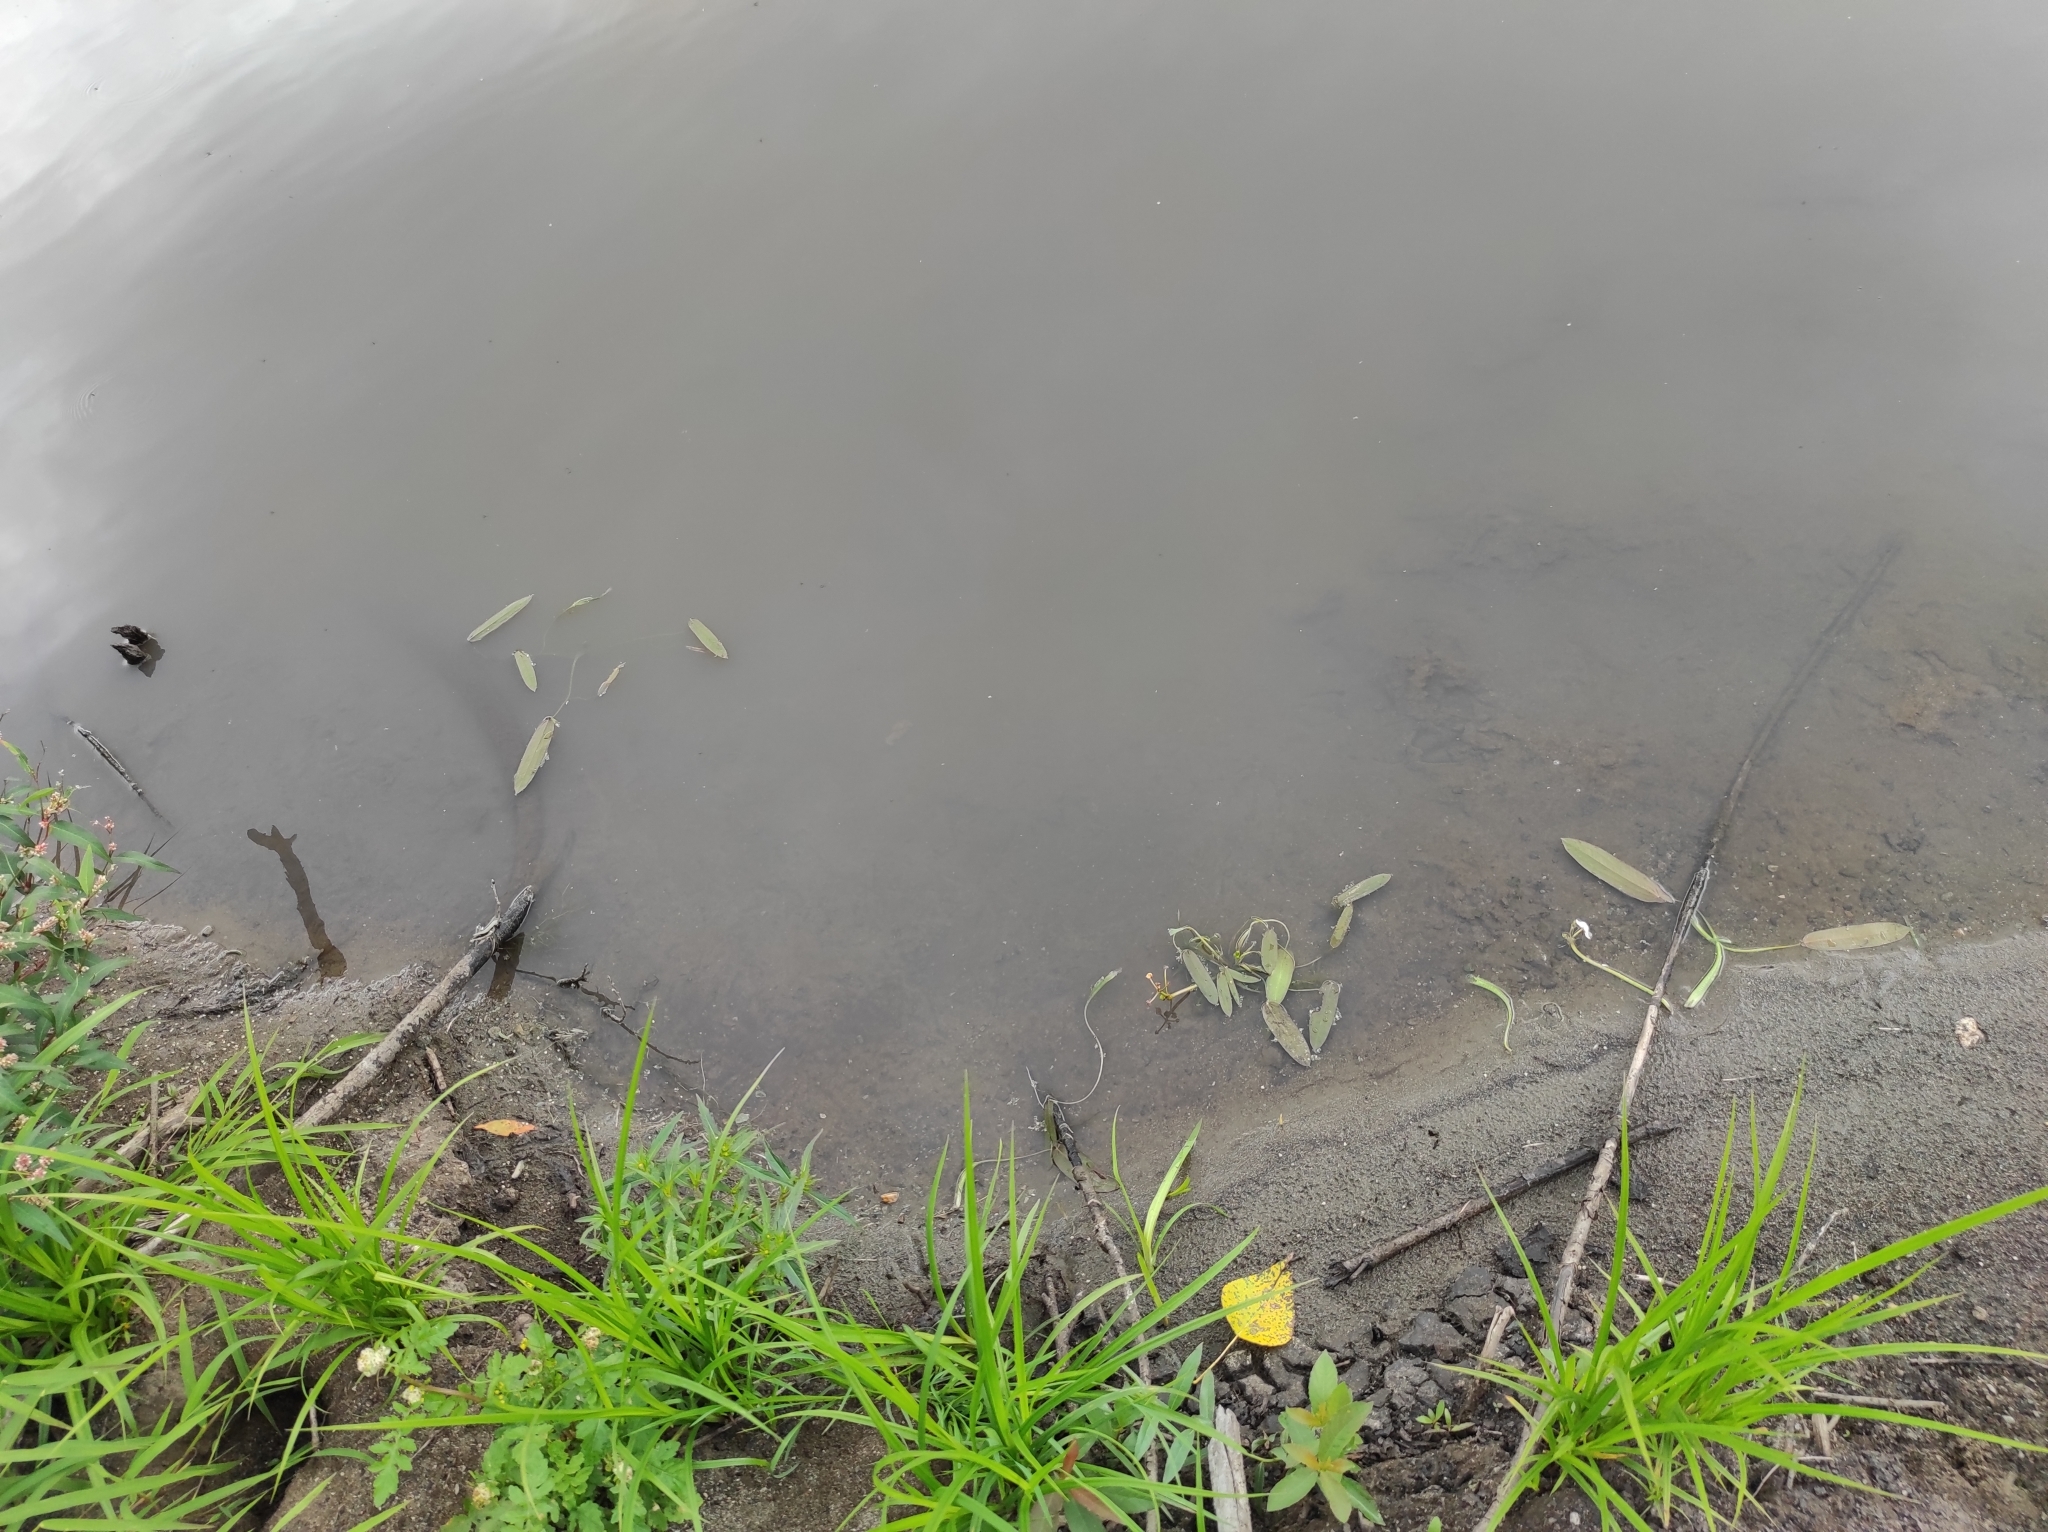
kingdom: Plantae
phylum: Tracheophyta
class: Liliopsida
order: Alismatales
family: Alismataceae
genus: Sagittaria
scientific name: Sagittaria natans
